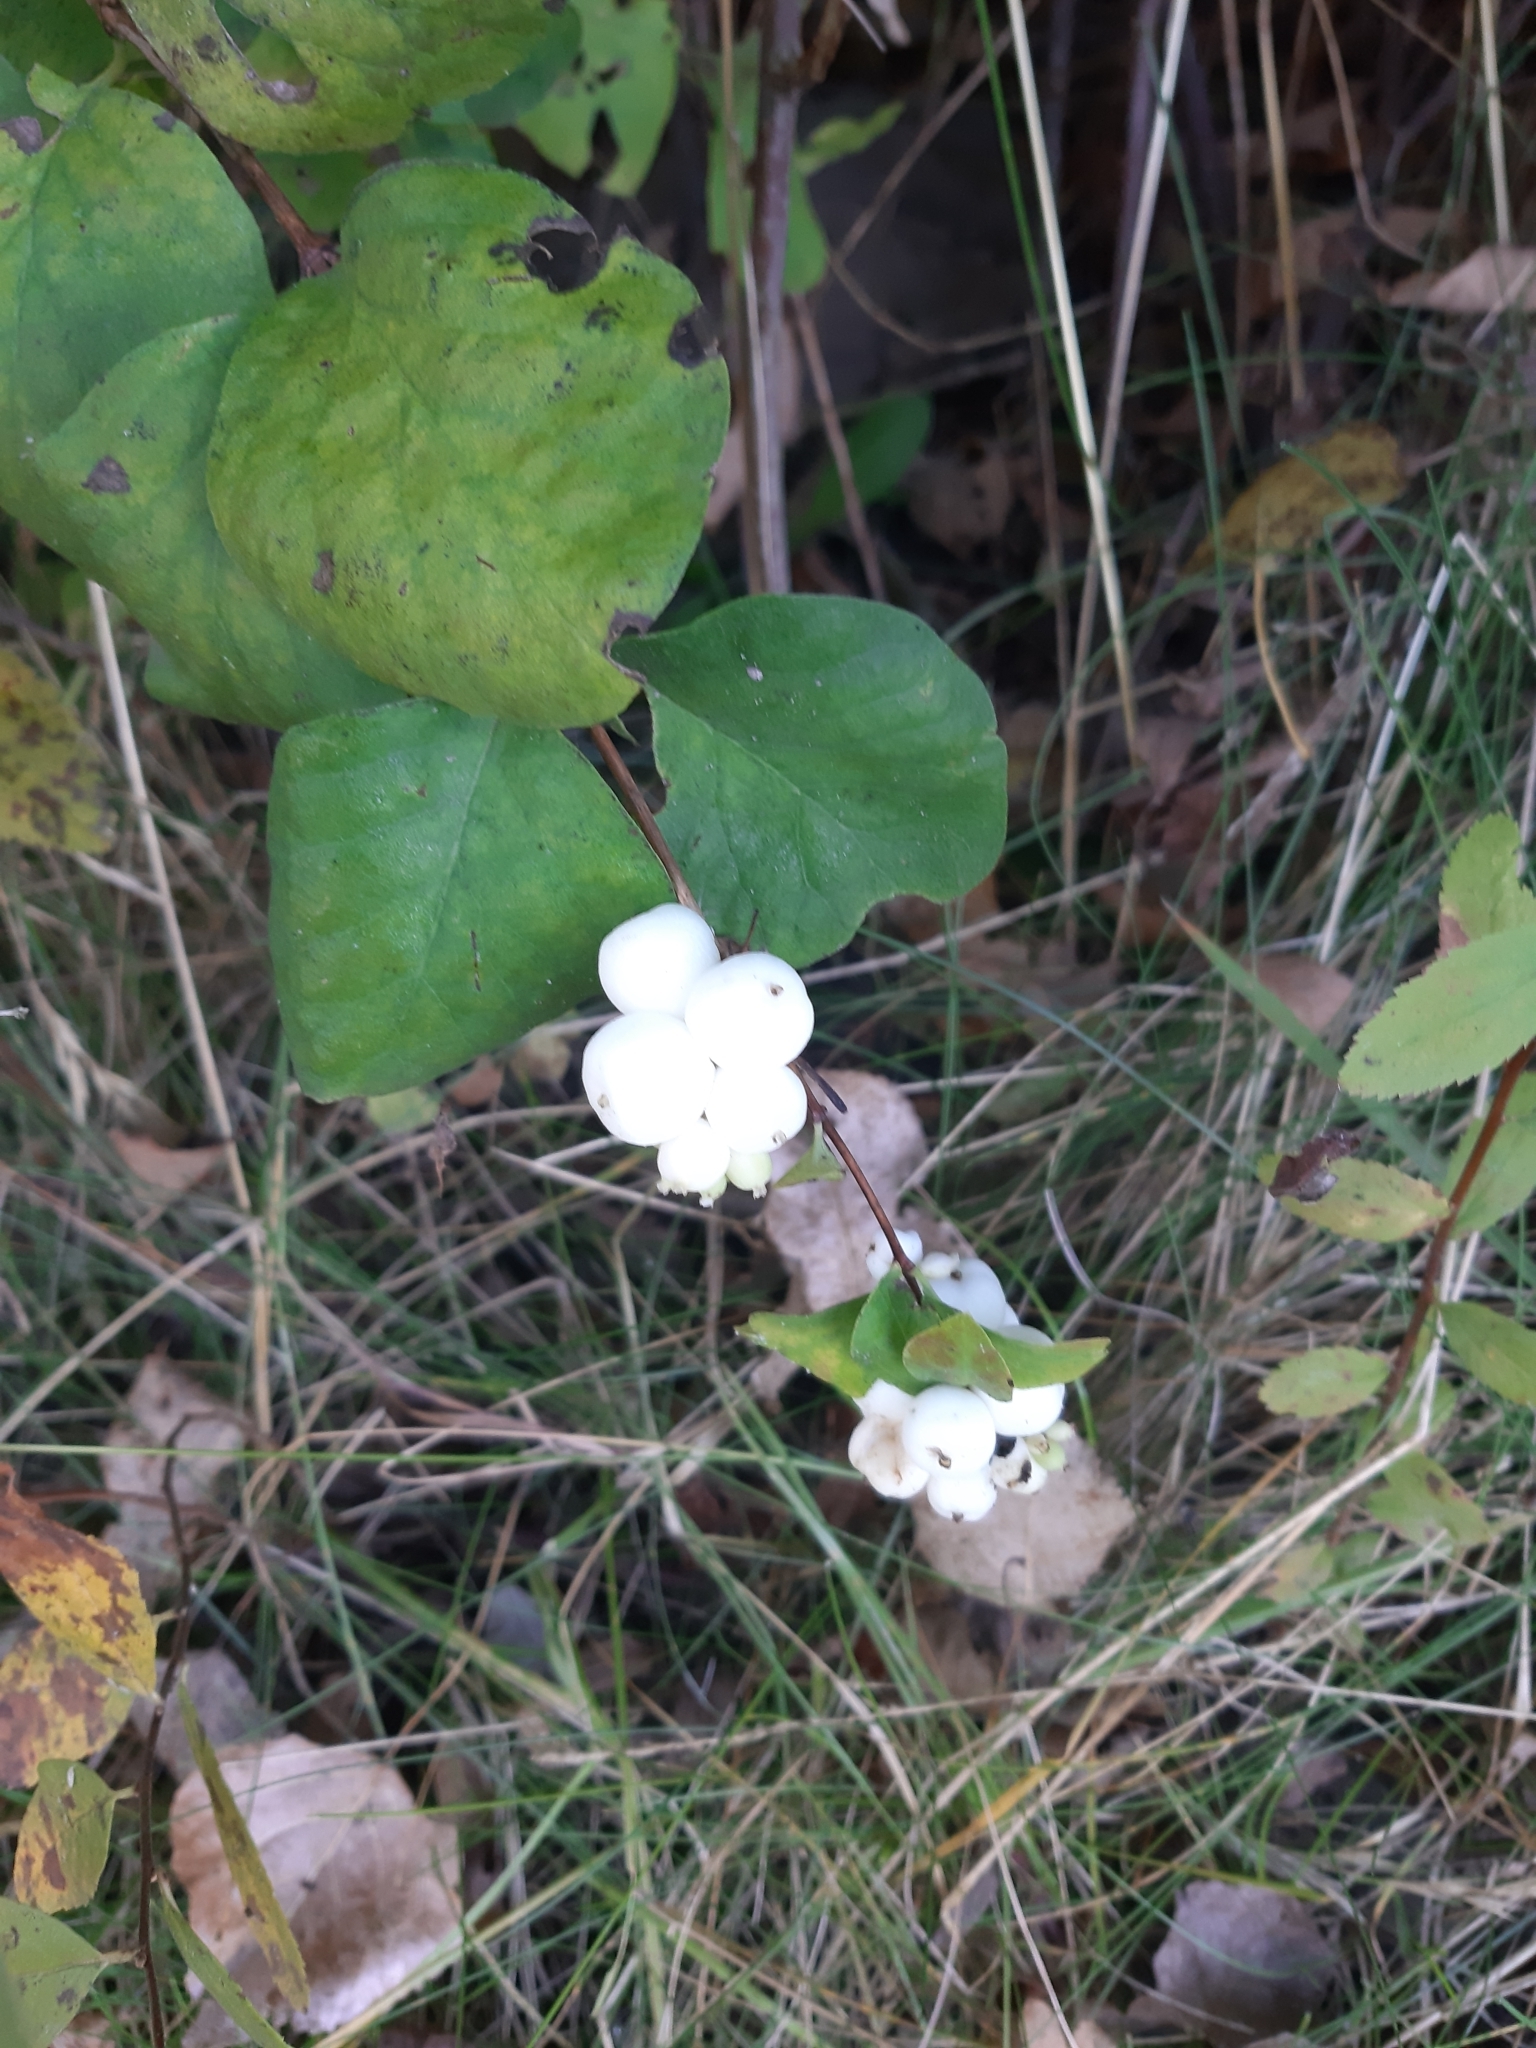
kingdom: Plantae
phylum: Tracheophyta
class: Magnoliopsida
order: Dipsacales
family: Caprifoliaceae
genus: Symphoricarpos
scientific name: Symphoricarpos albus
